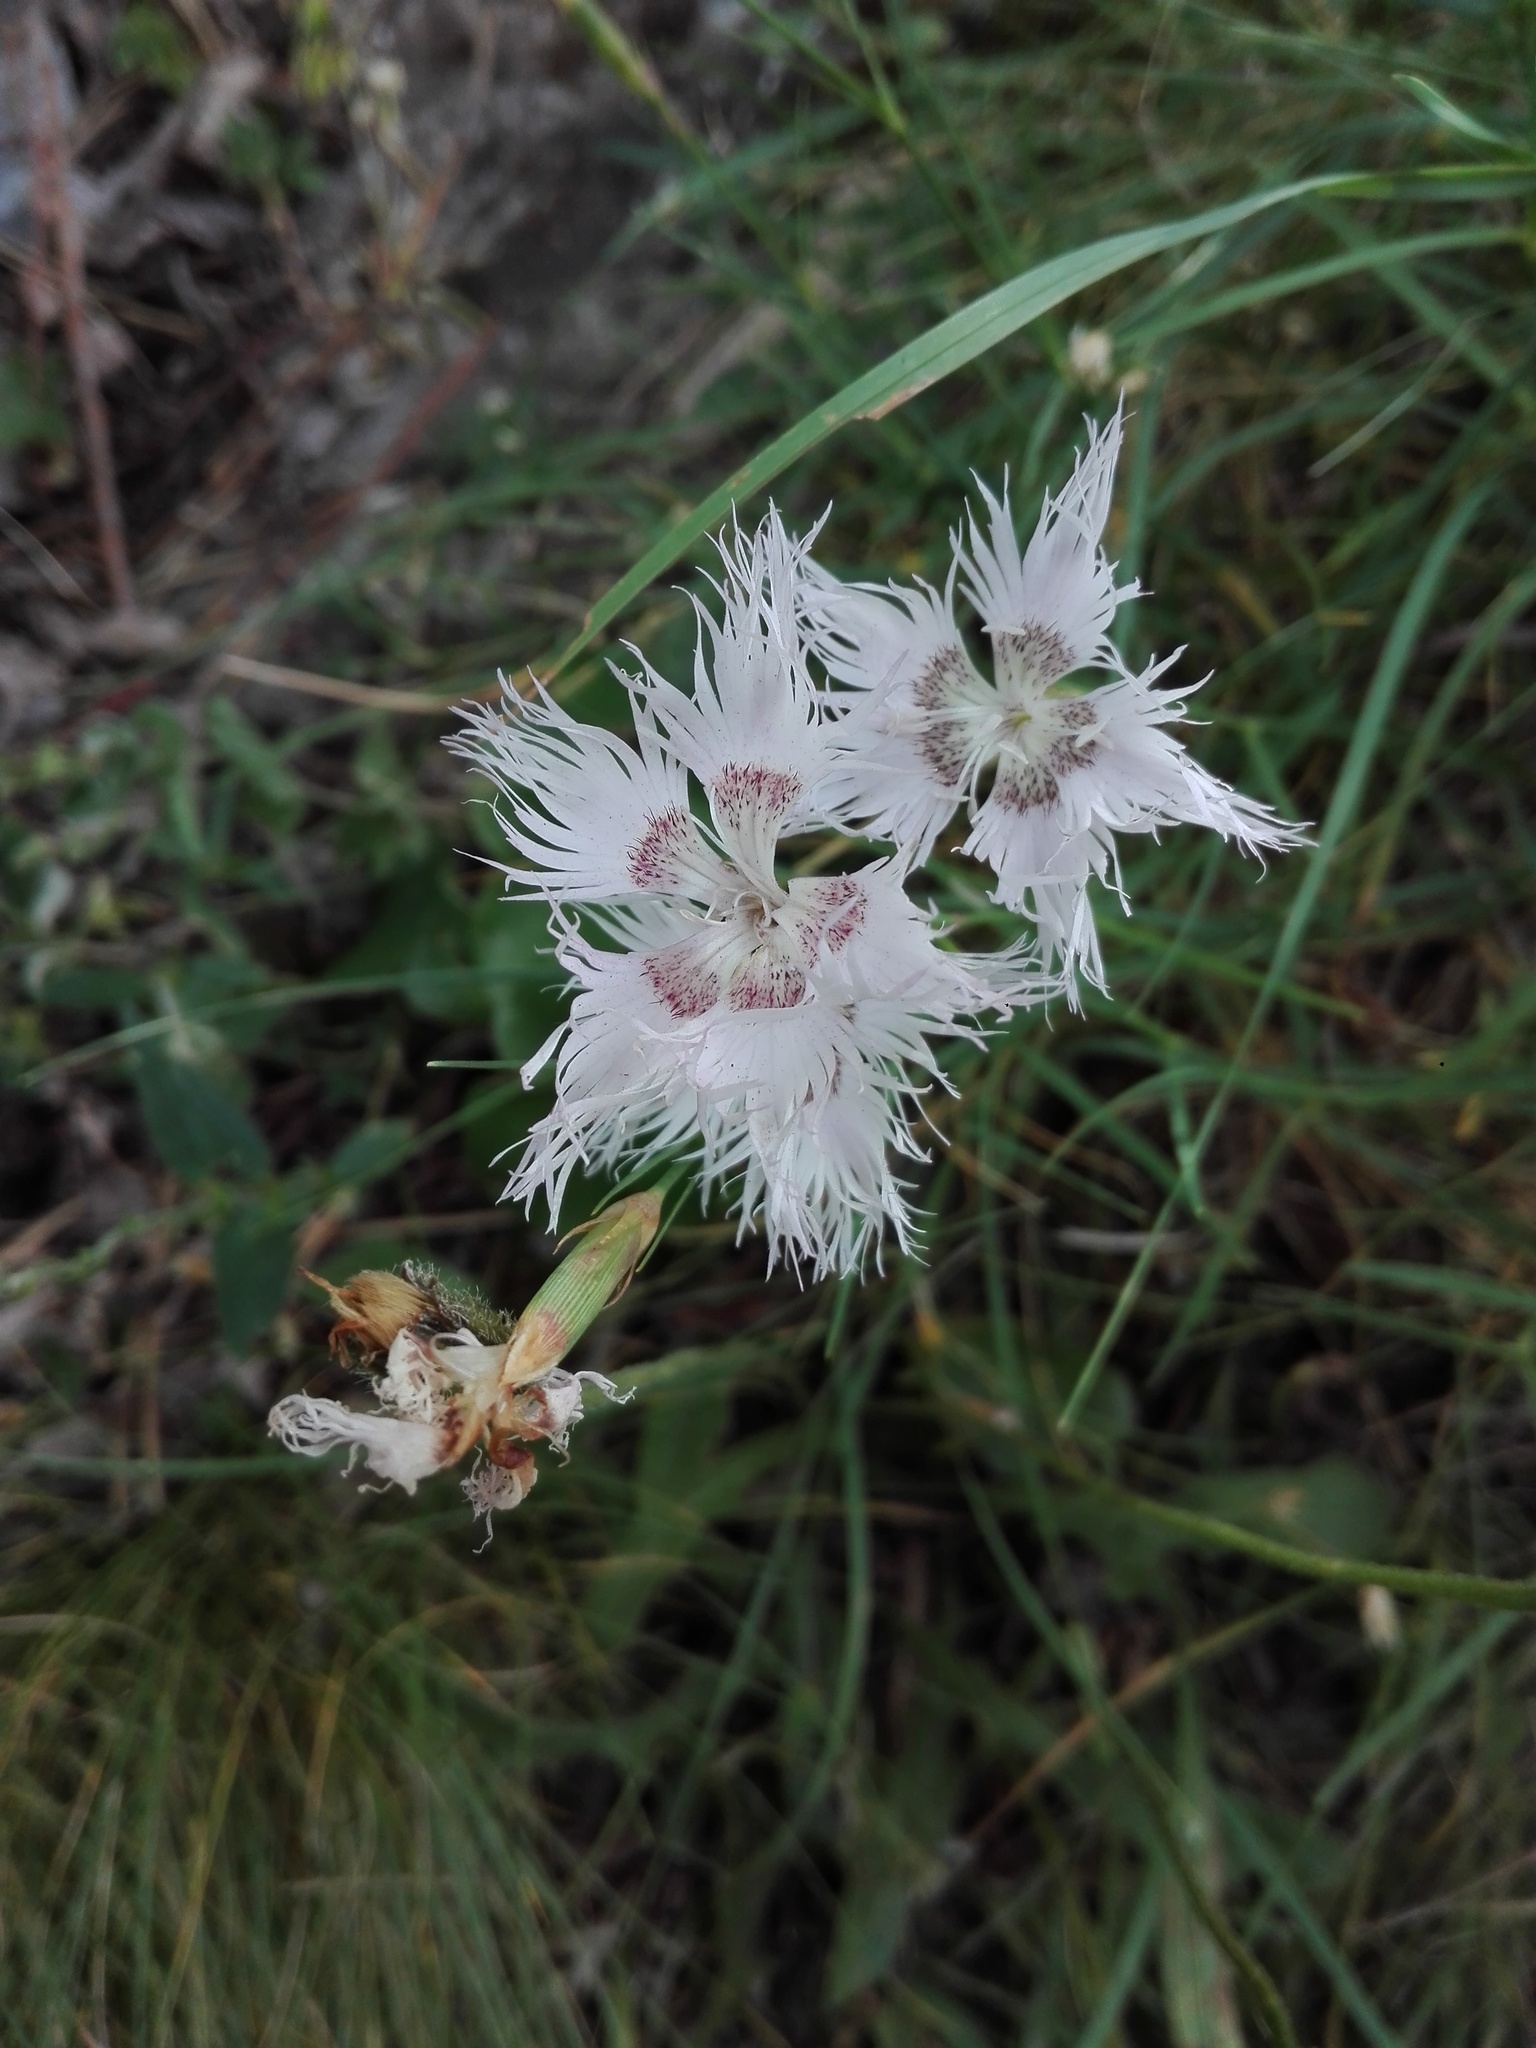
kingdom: Plantae
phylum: Tracheophyta
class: Magnoliopsida
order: Caryophyllales
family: Caryophyllaceae
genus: Dianthus
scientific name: Dianthus hyssopifolius
